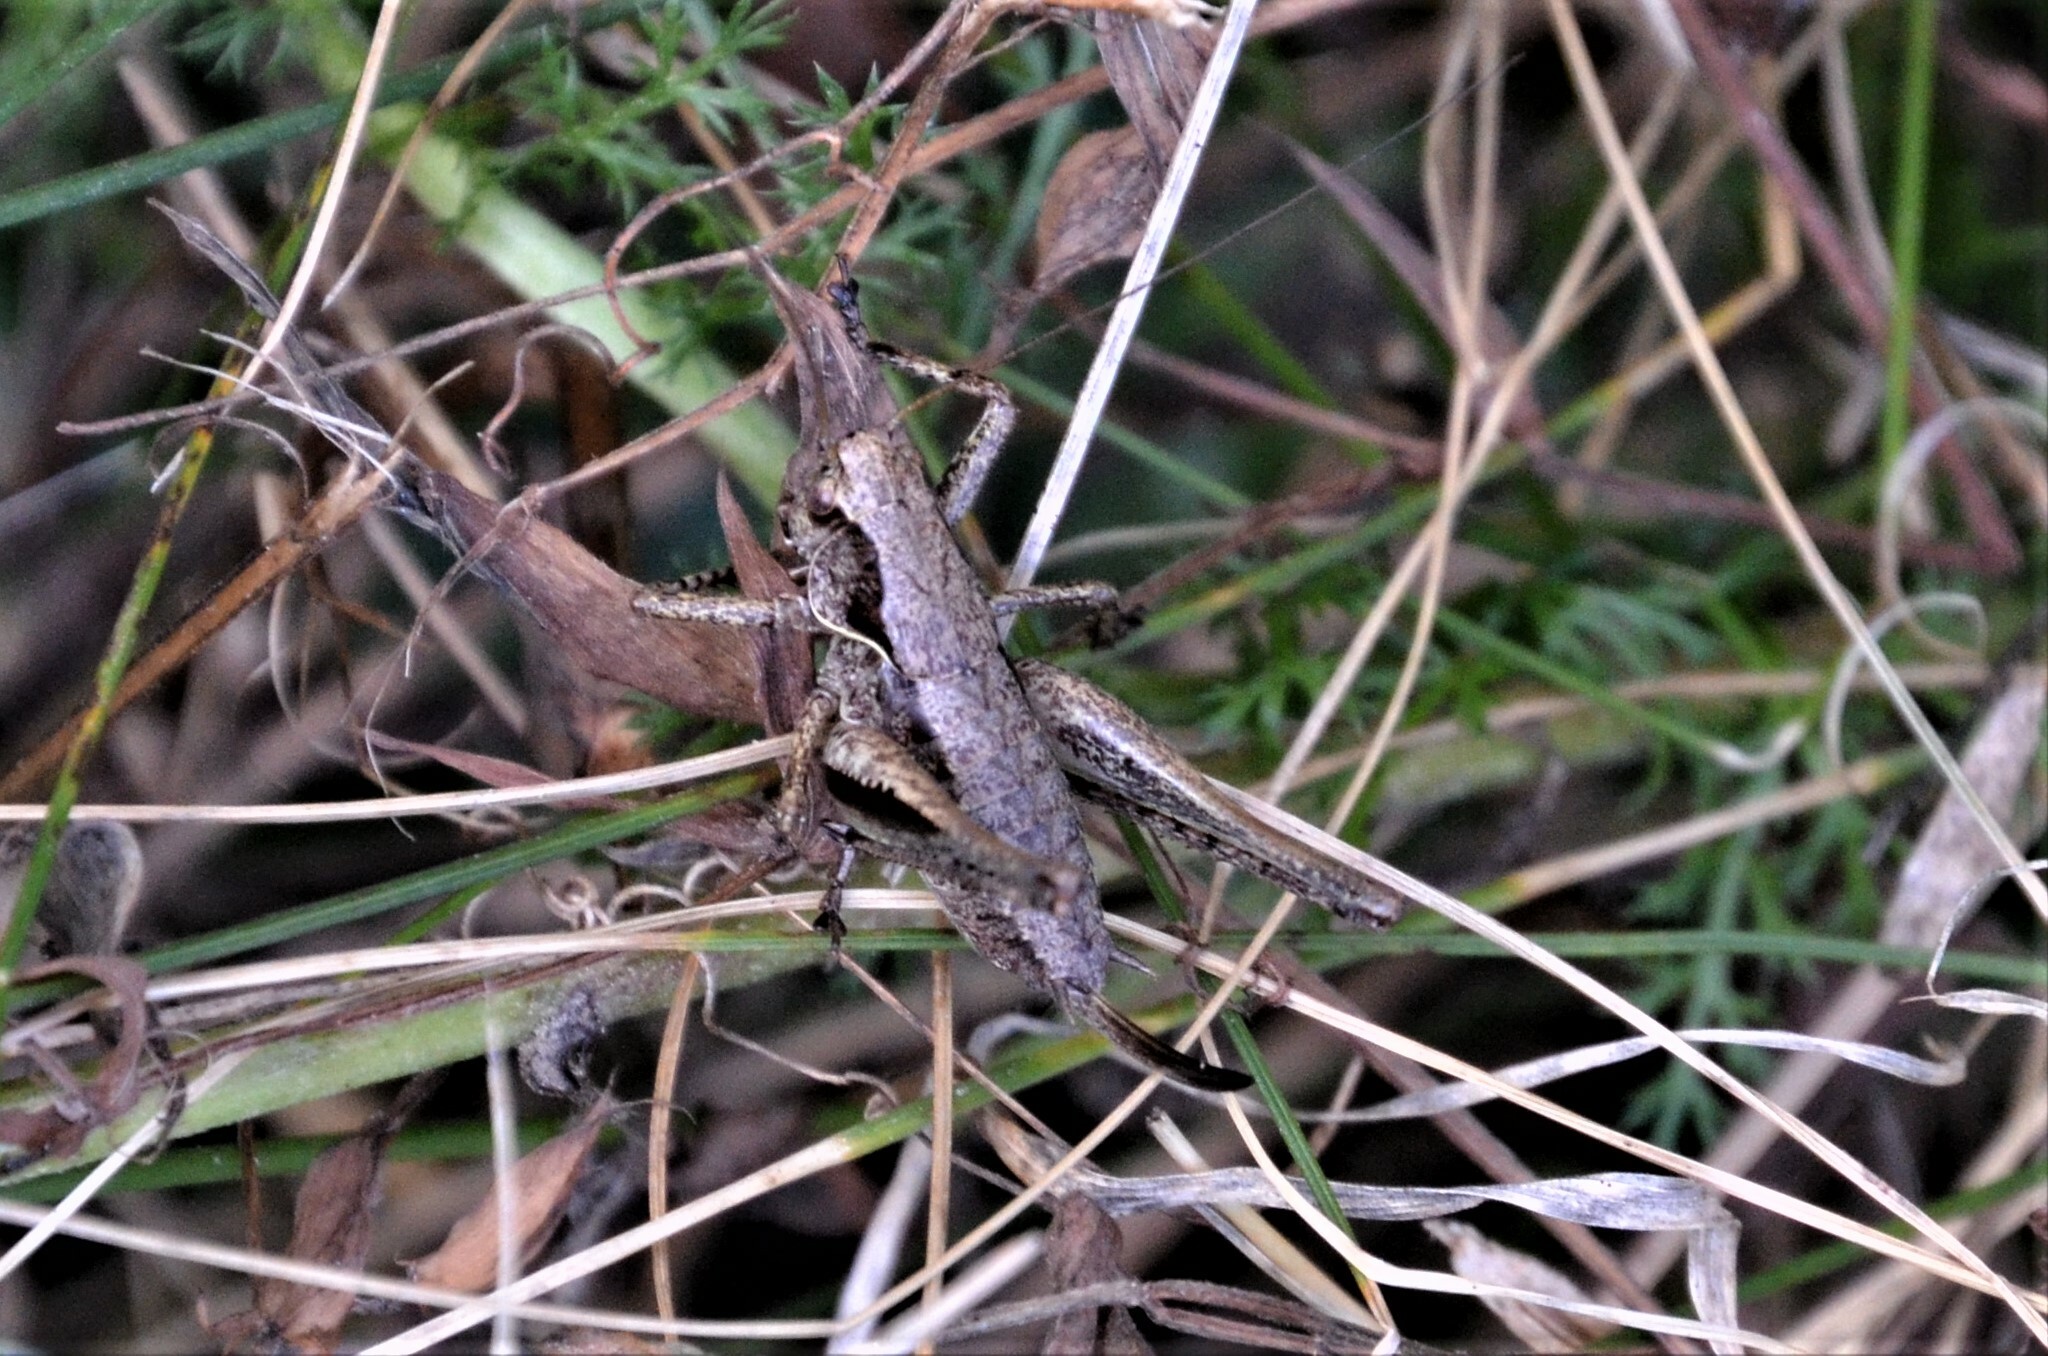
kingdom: Animalia
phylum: Arthropoda
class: Insecta
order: Orthoptera
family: Tettigoniidae
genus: Pholidoptera
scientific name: Pholidoptera griseoaptera
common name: Dark bush-cricket
